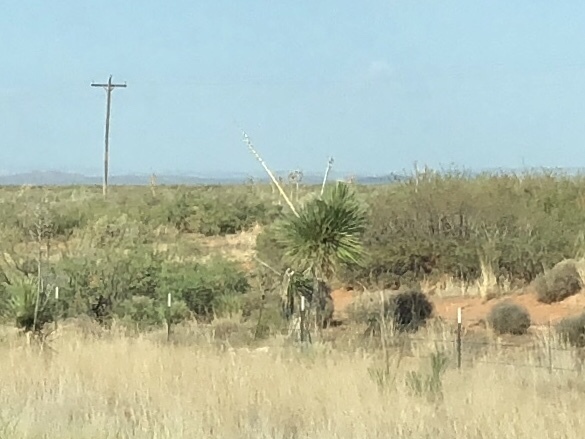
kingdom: Plantae
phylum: Tracheophyta
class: Liliopsida
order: Asparagales
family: Asparagaceae
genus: Yucca
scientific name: Yucca elata
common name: Palmella
